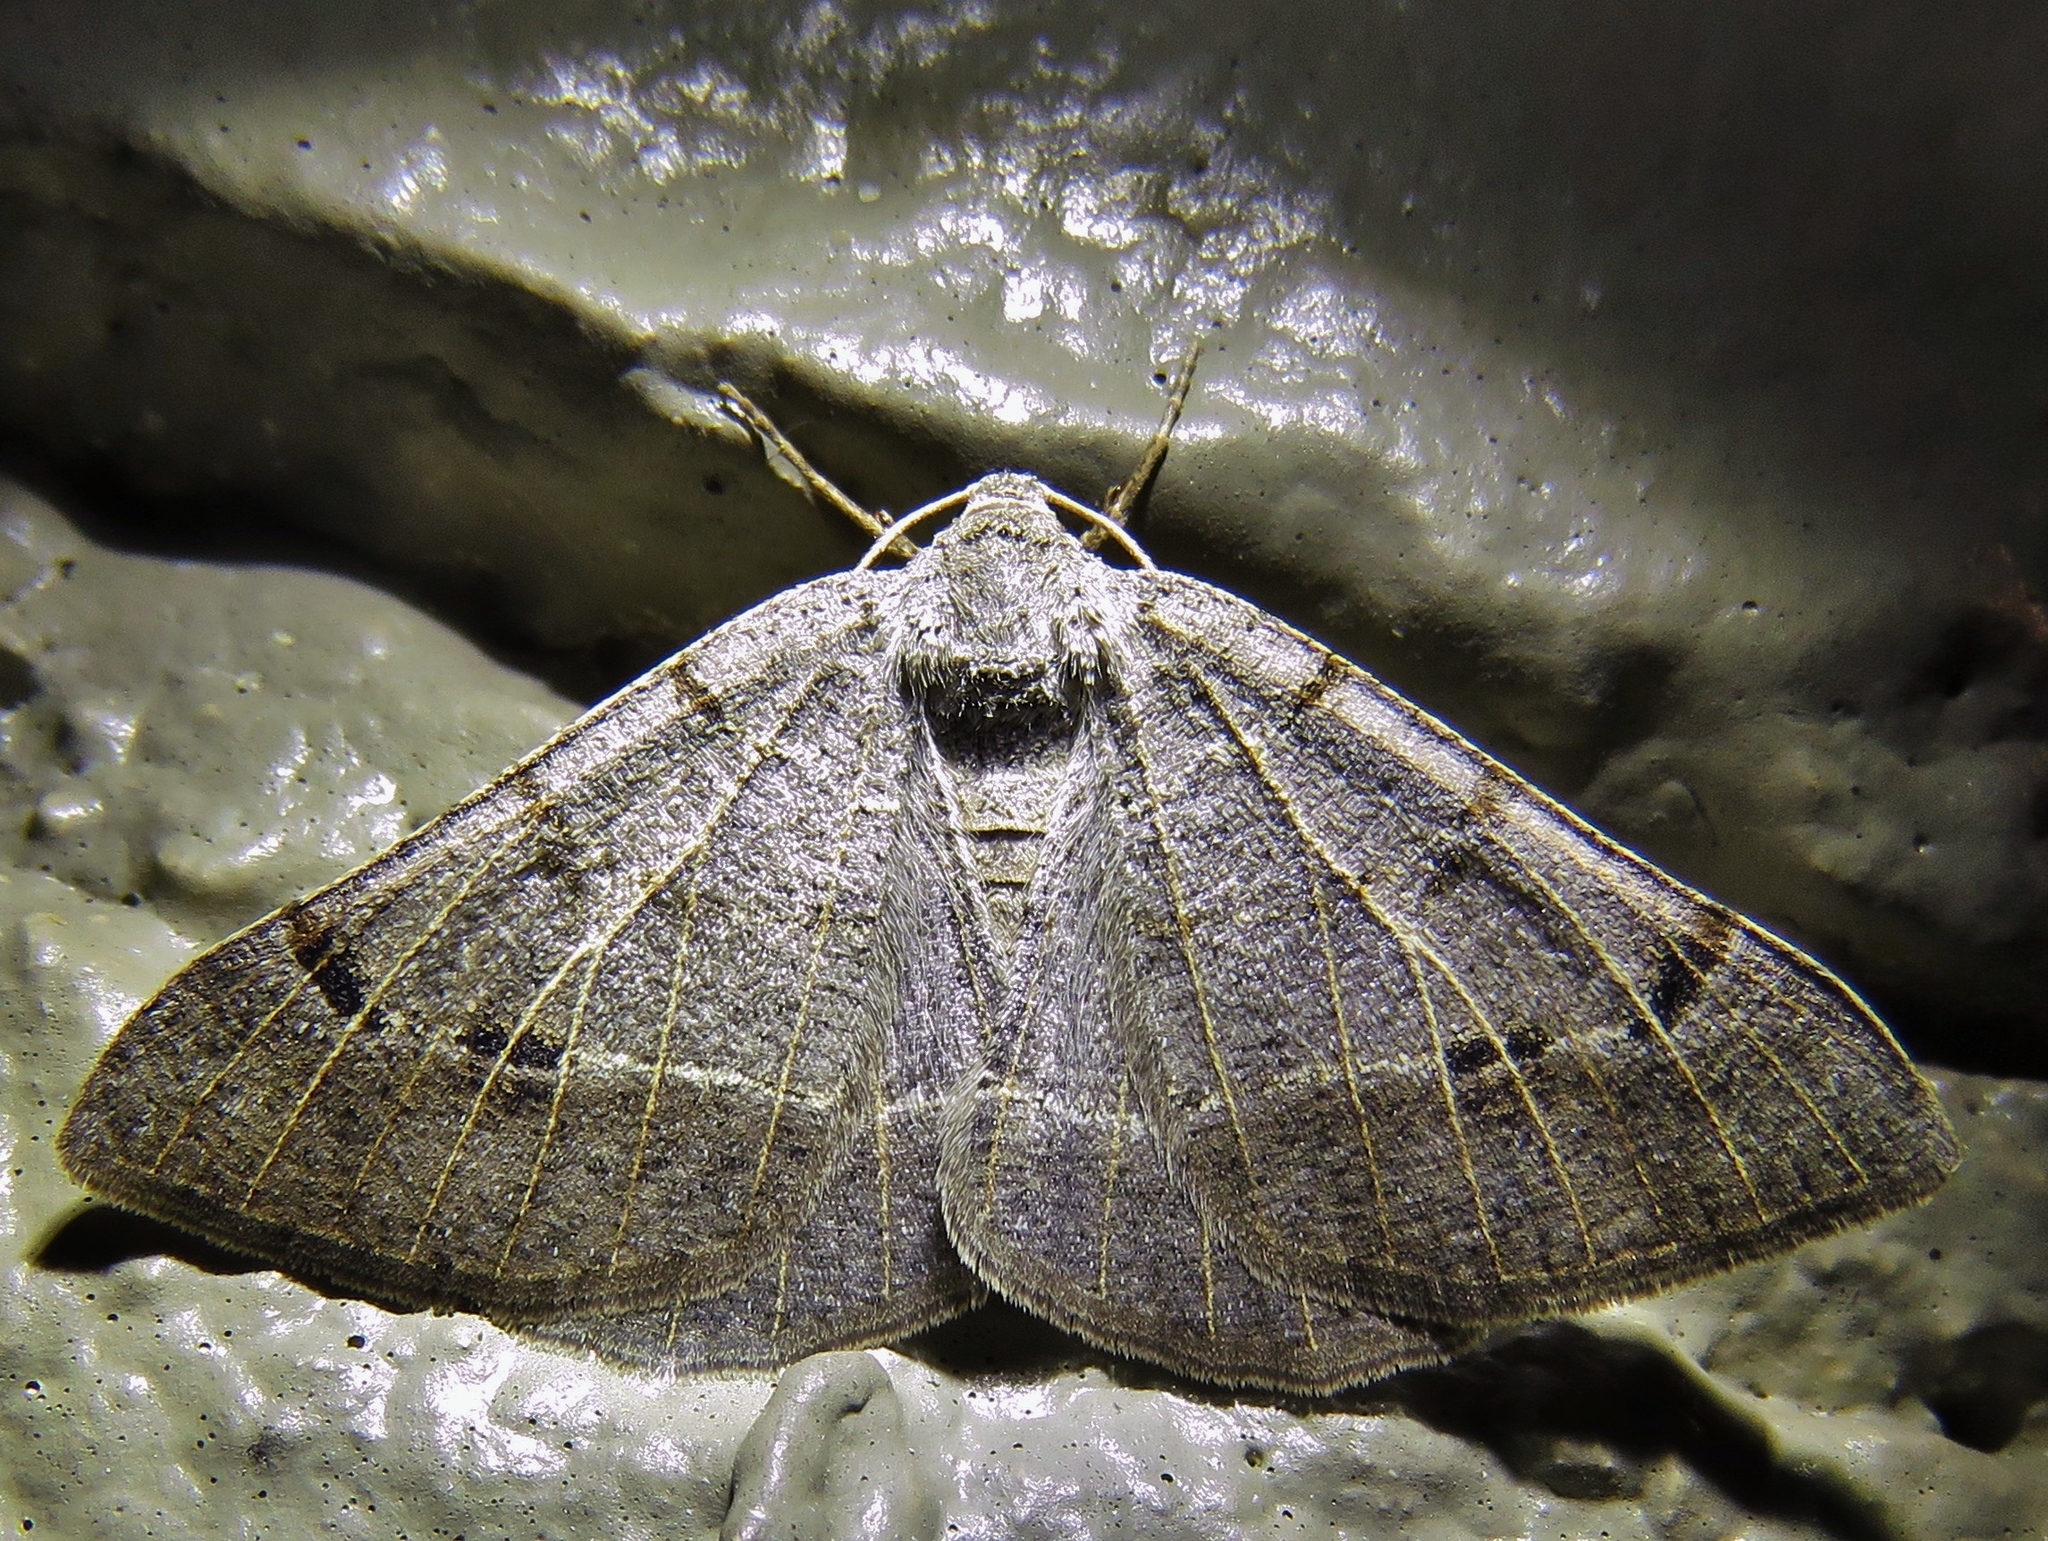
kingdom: Animalia
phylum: Arthropoda
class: Insecta
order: Lepidoptera
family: Geometridae
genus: Isturgia
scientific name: Isturgia dislocaria
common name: Pale-viened enconista
